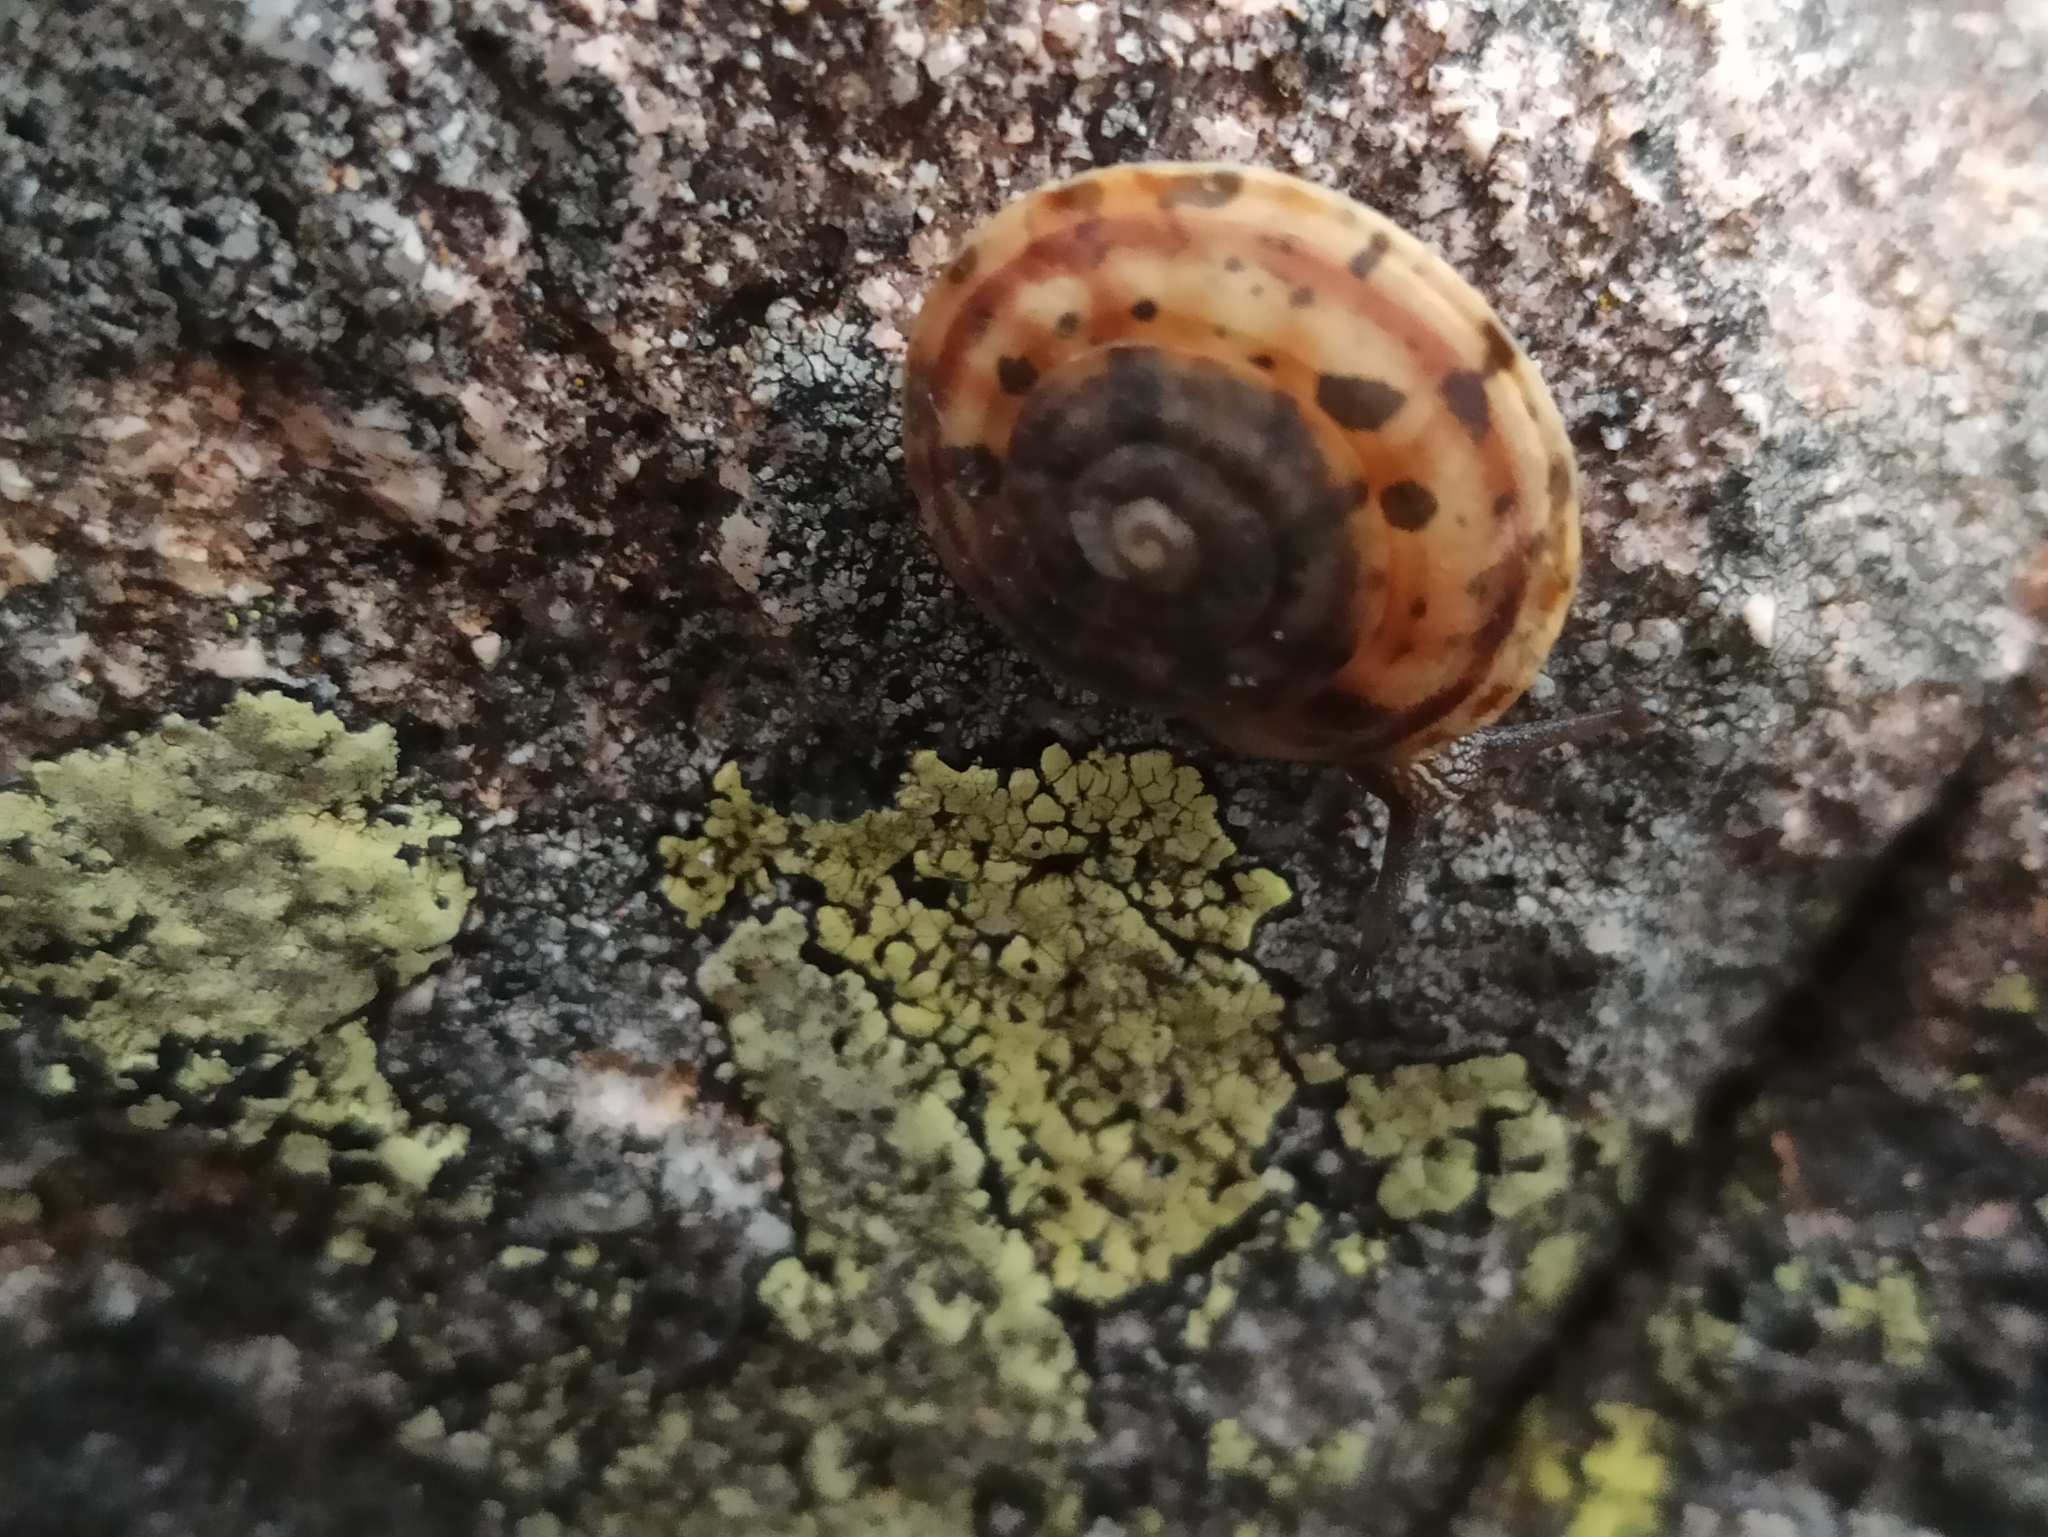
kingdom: Animalia
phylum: Mollusca
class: Gastropoda
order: Stylommatophora
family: Helicidae
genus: Helicigona
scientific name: Helicigona lapicida
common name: Lapidary snail
